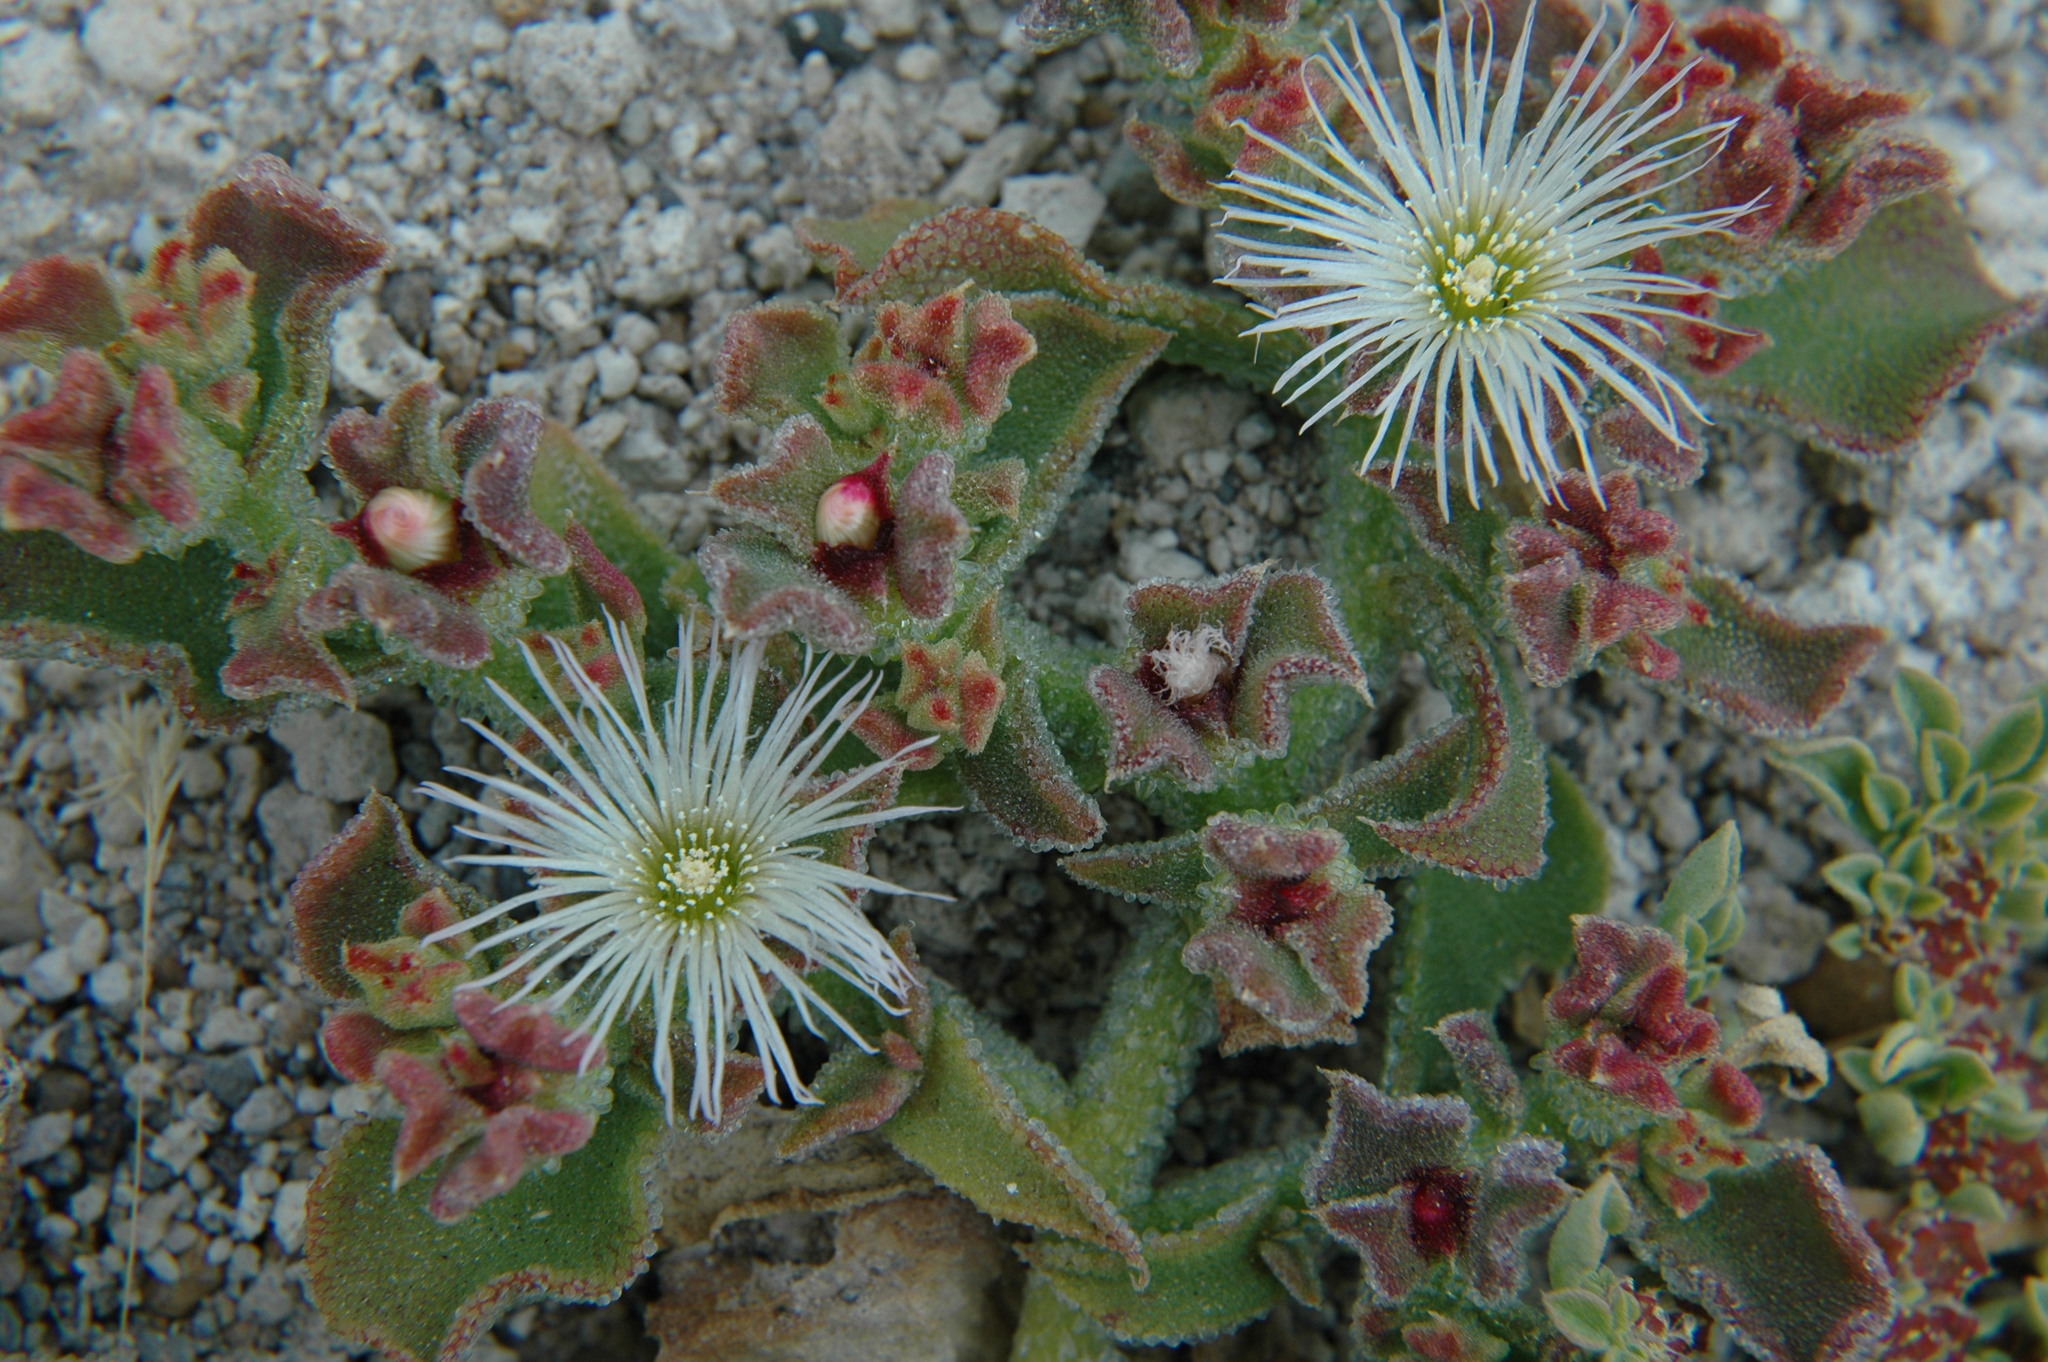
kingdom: Plantae
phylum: Tracheophyta
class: Magnoliopsida
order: Caryophyllales
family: Aizoaceae
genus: Mesembryanthemum
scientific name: Mesembryanthemum crystallinum
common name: Common iceplant
